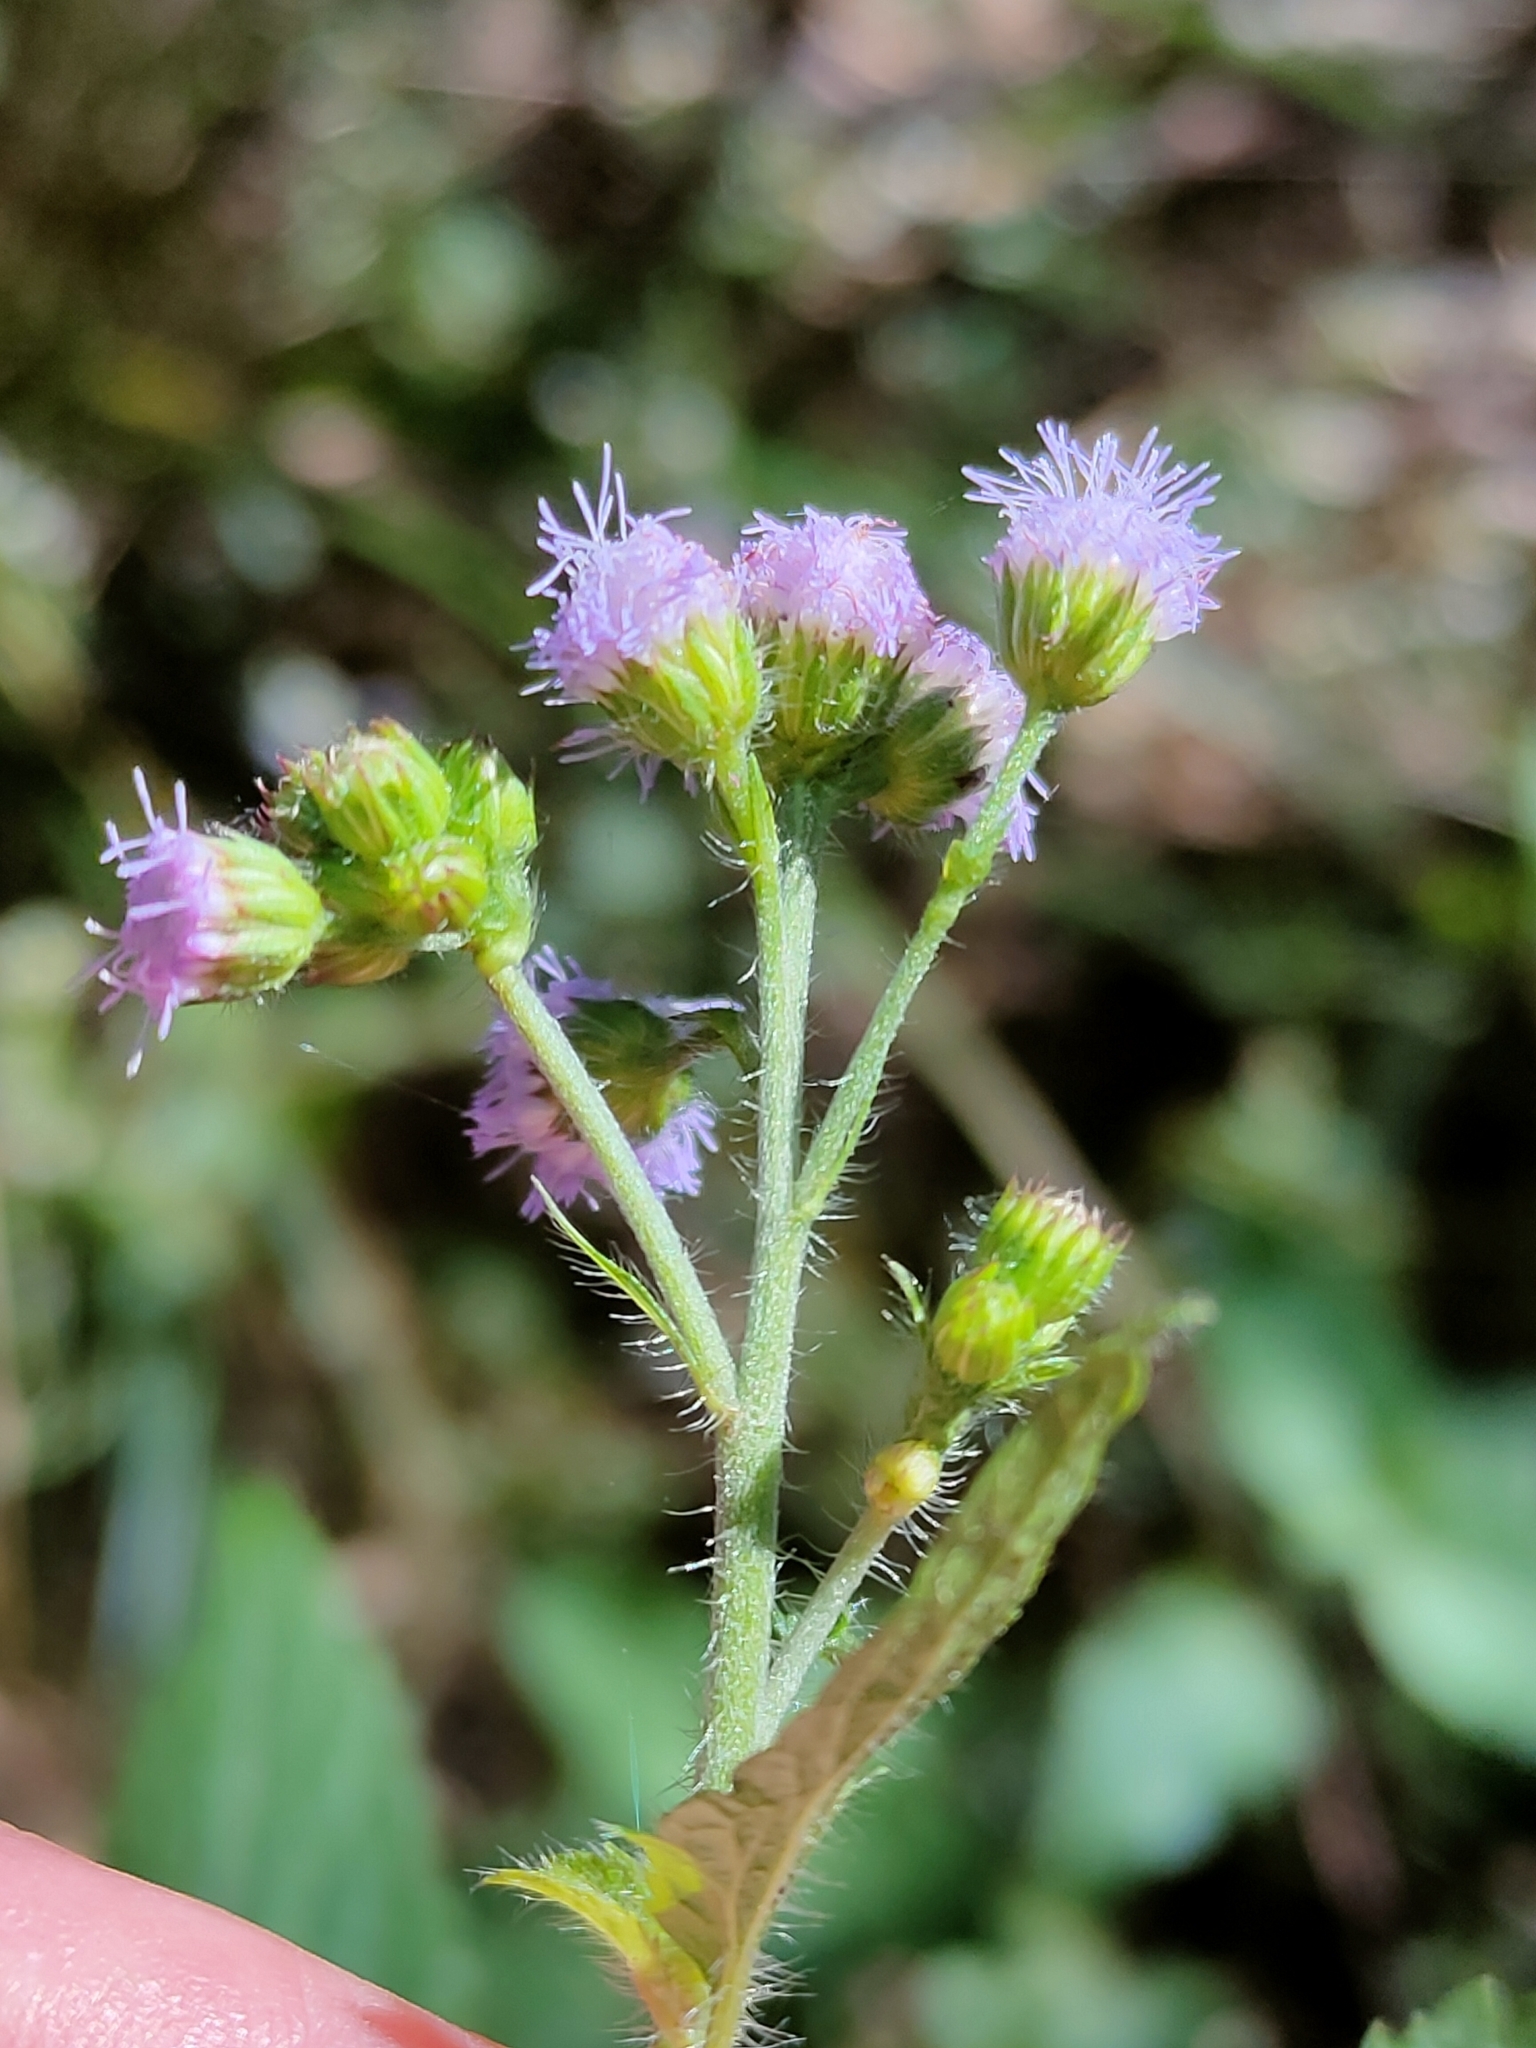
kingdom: Plantae
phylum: Tracheophyta
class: Magnoliopsida
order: Asterales
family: Asteraceae
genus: Ageratum
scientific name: Ageratum houstonianum
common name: Bluemink
